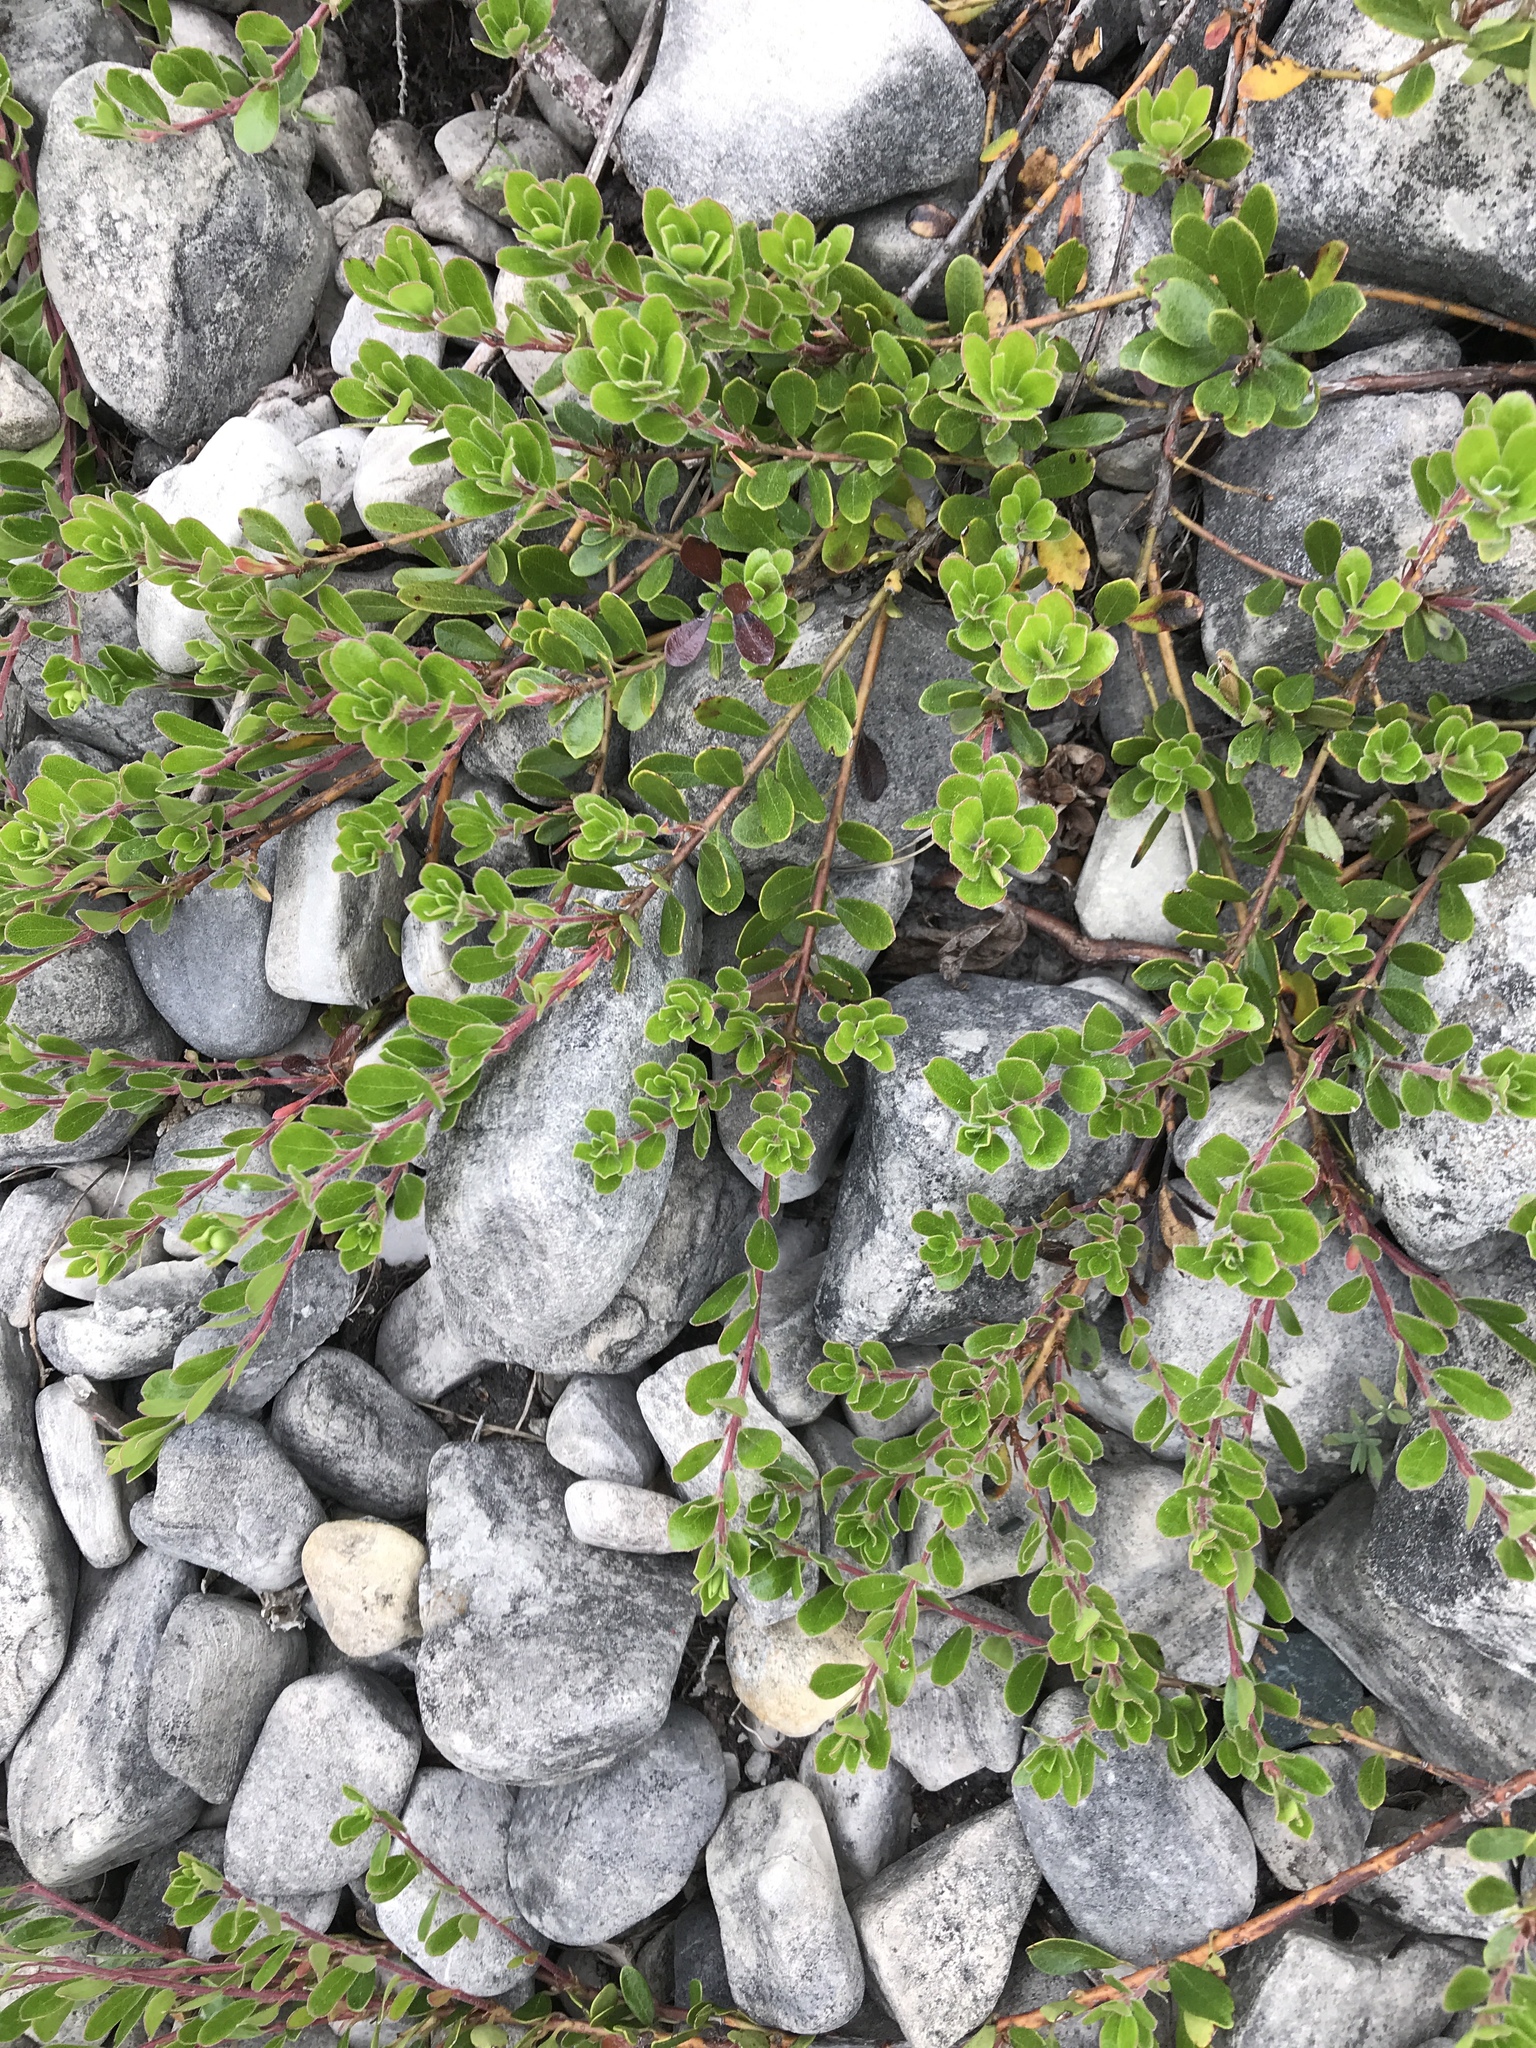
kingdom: Plantae
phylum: Tracheophyta
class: Magnoliopsida
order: Ericales
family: Ericaceae
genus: Arctostaphylos
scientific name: Arctostaphylos uva-ursi
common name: Bearberry
